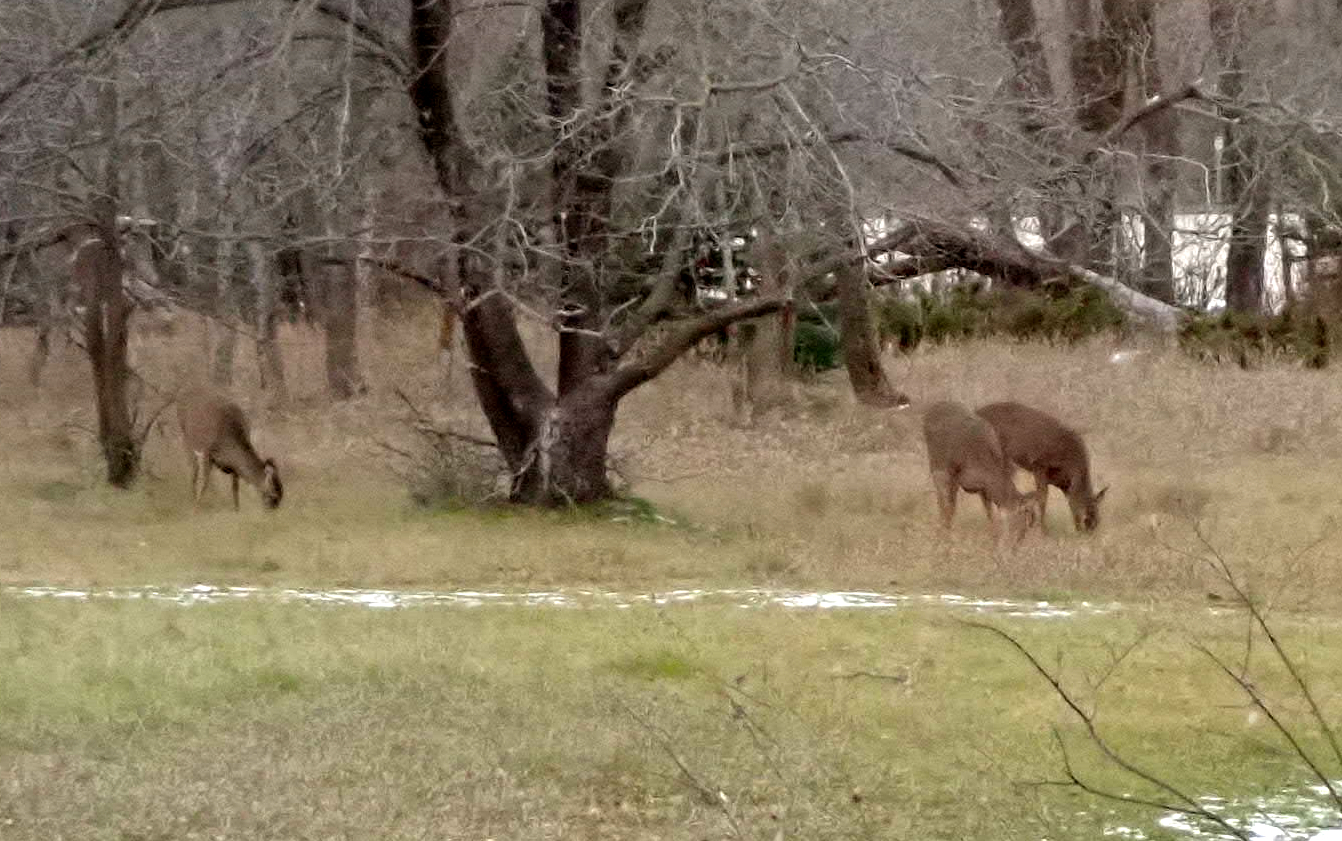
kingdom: Animalia
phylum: Chordata
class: Mammalia
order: Artiodactyla
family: Cervidae
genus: Odocoileus
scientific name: Odocoileus virginianus
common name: White-tailed deer
